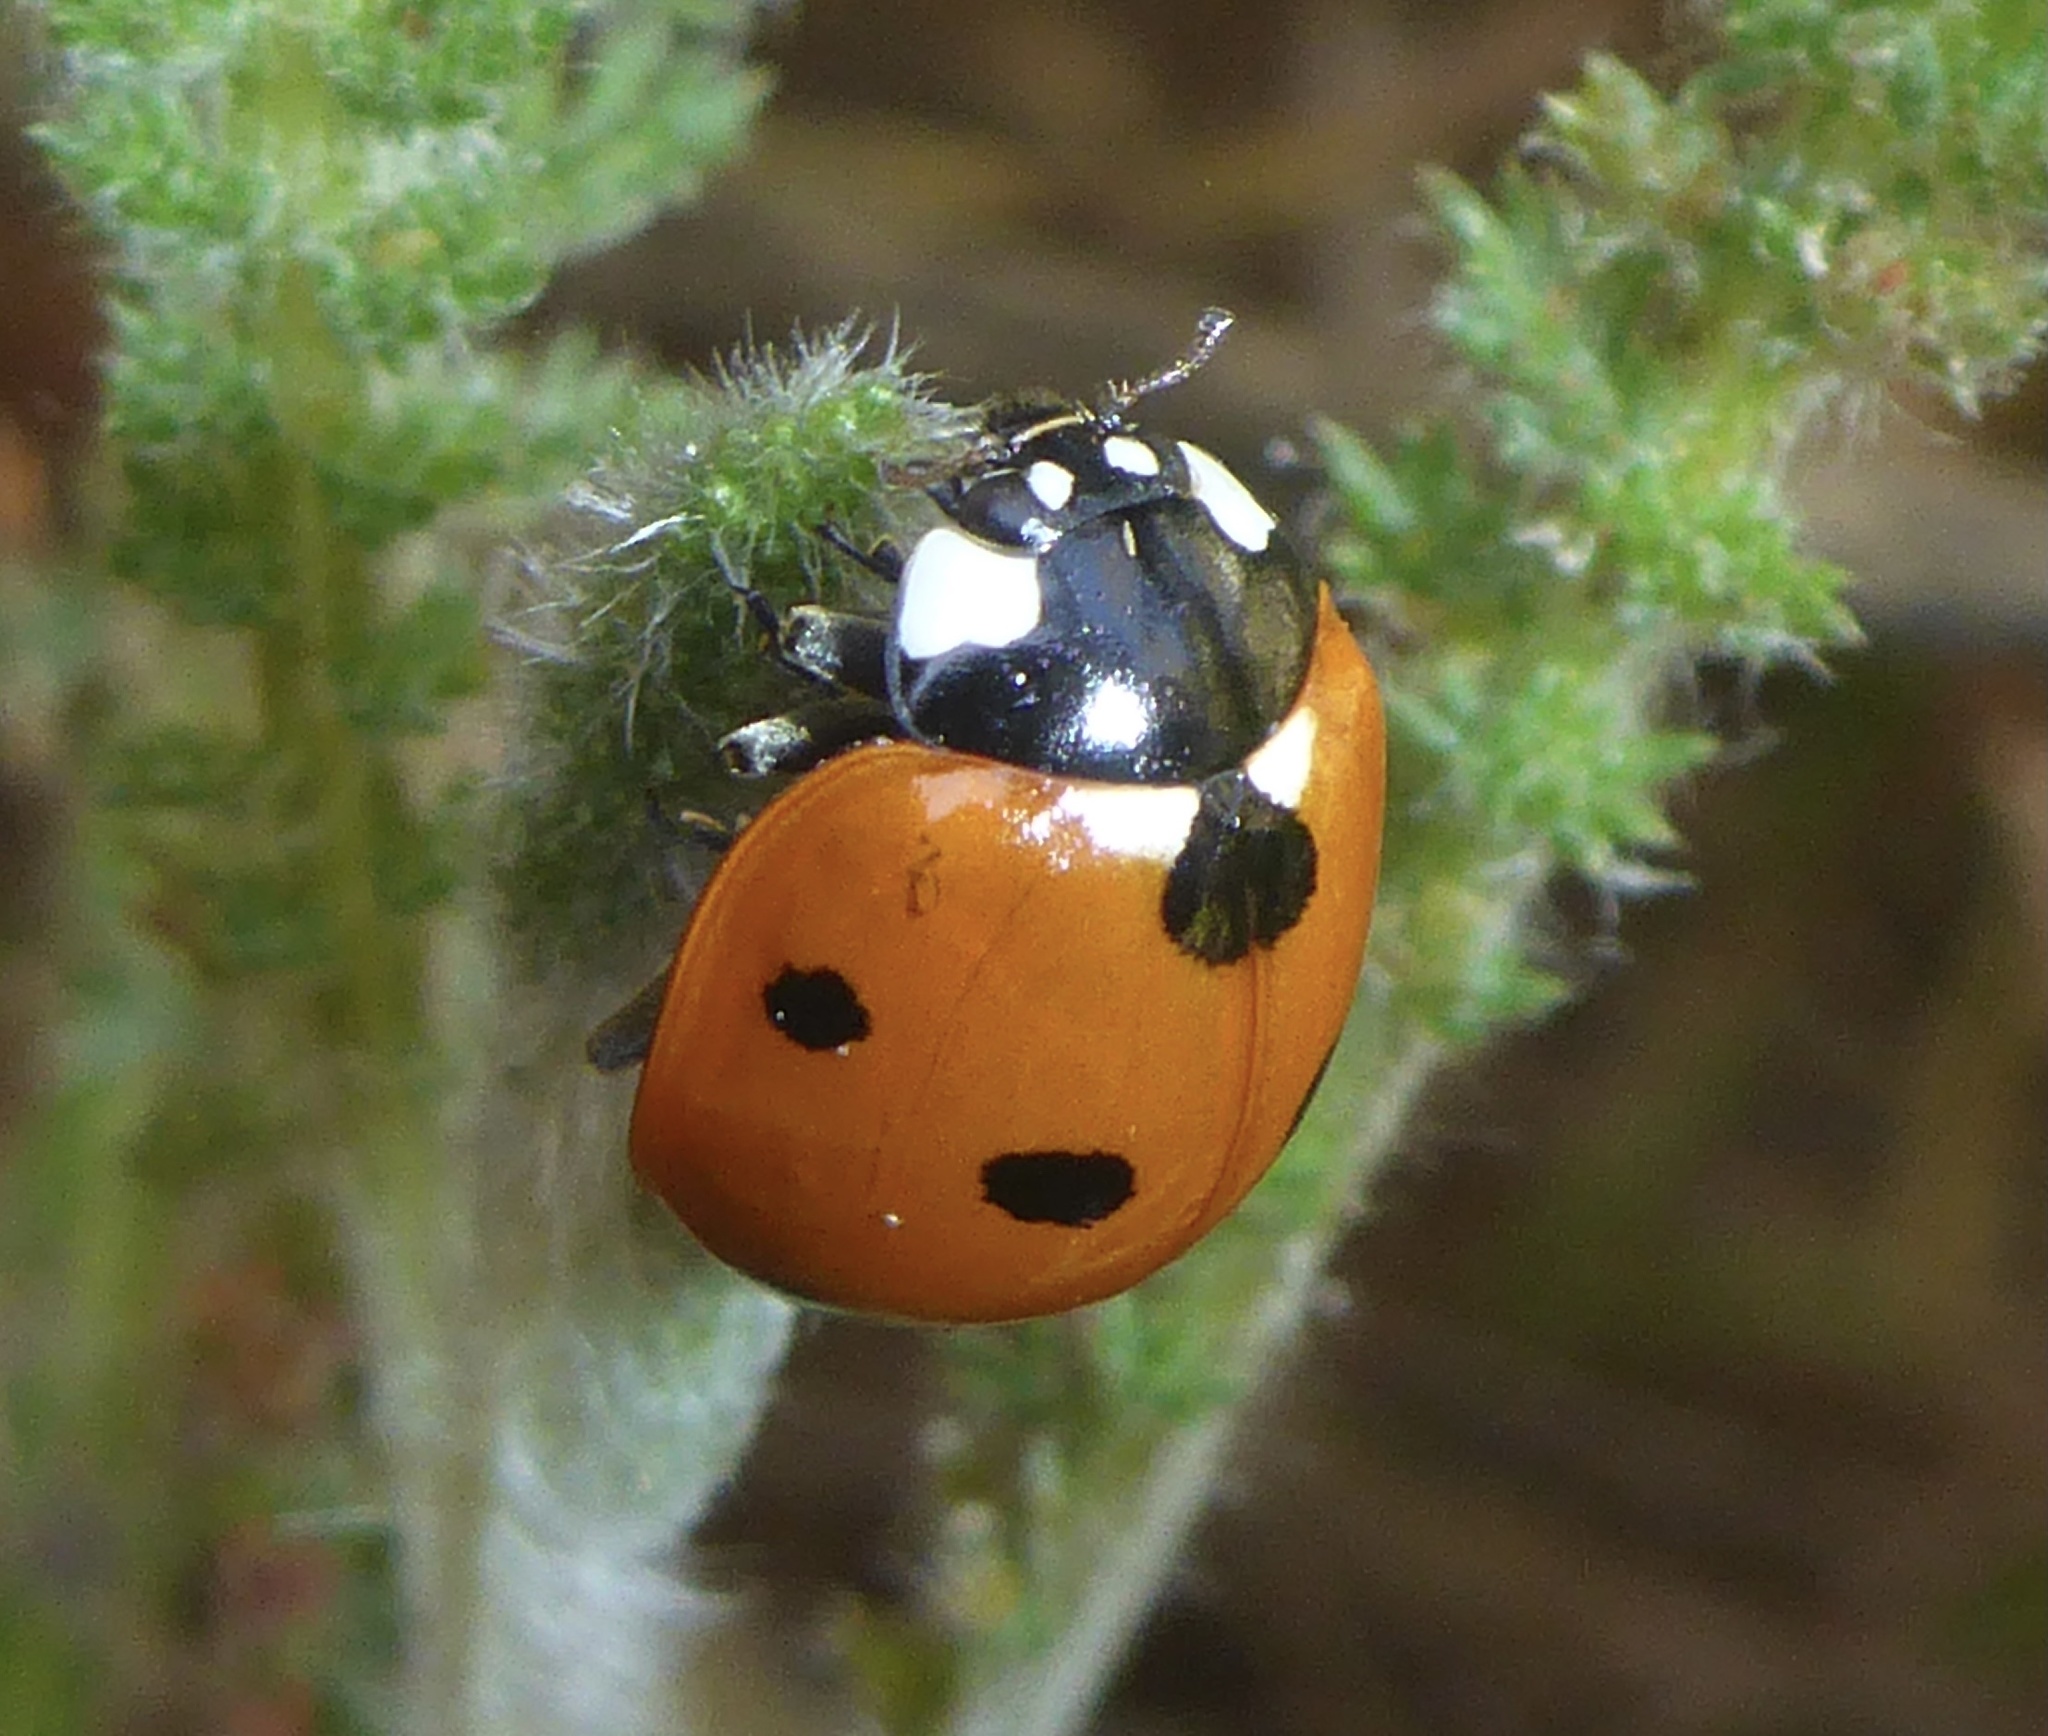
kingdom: Animalia
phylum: Arthropoda
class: Insecta
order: Coleoptera
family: Coccinellidae
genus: Coccinella
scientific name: Coccinella septempunctata
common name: Sevenspotted lady beetle
